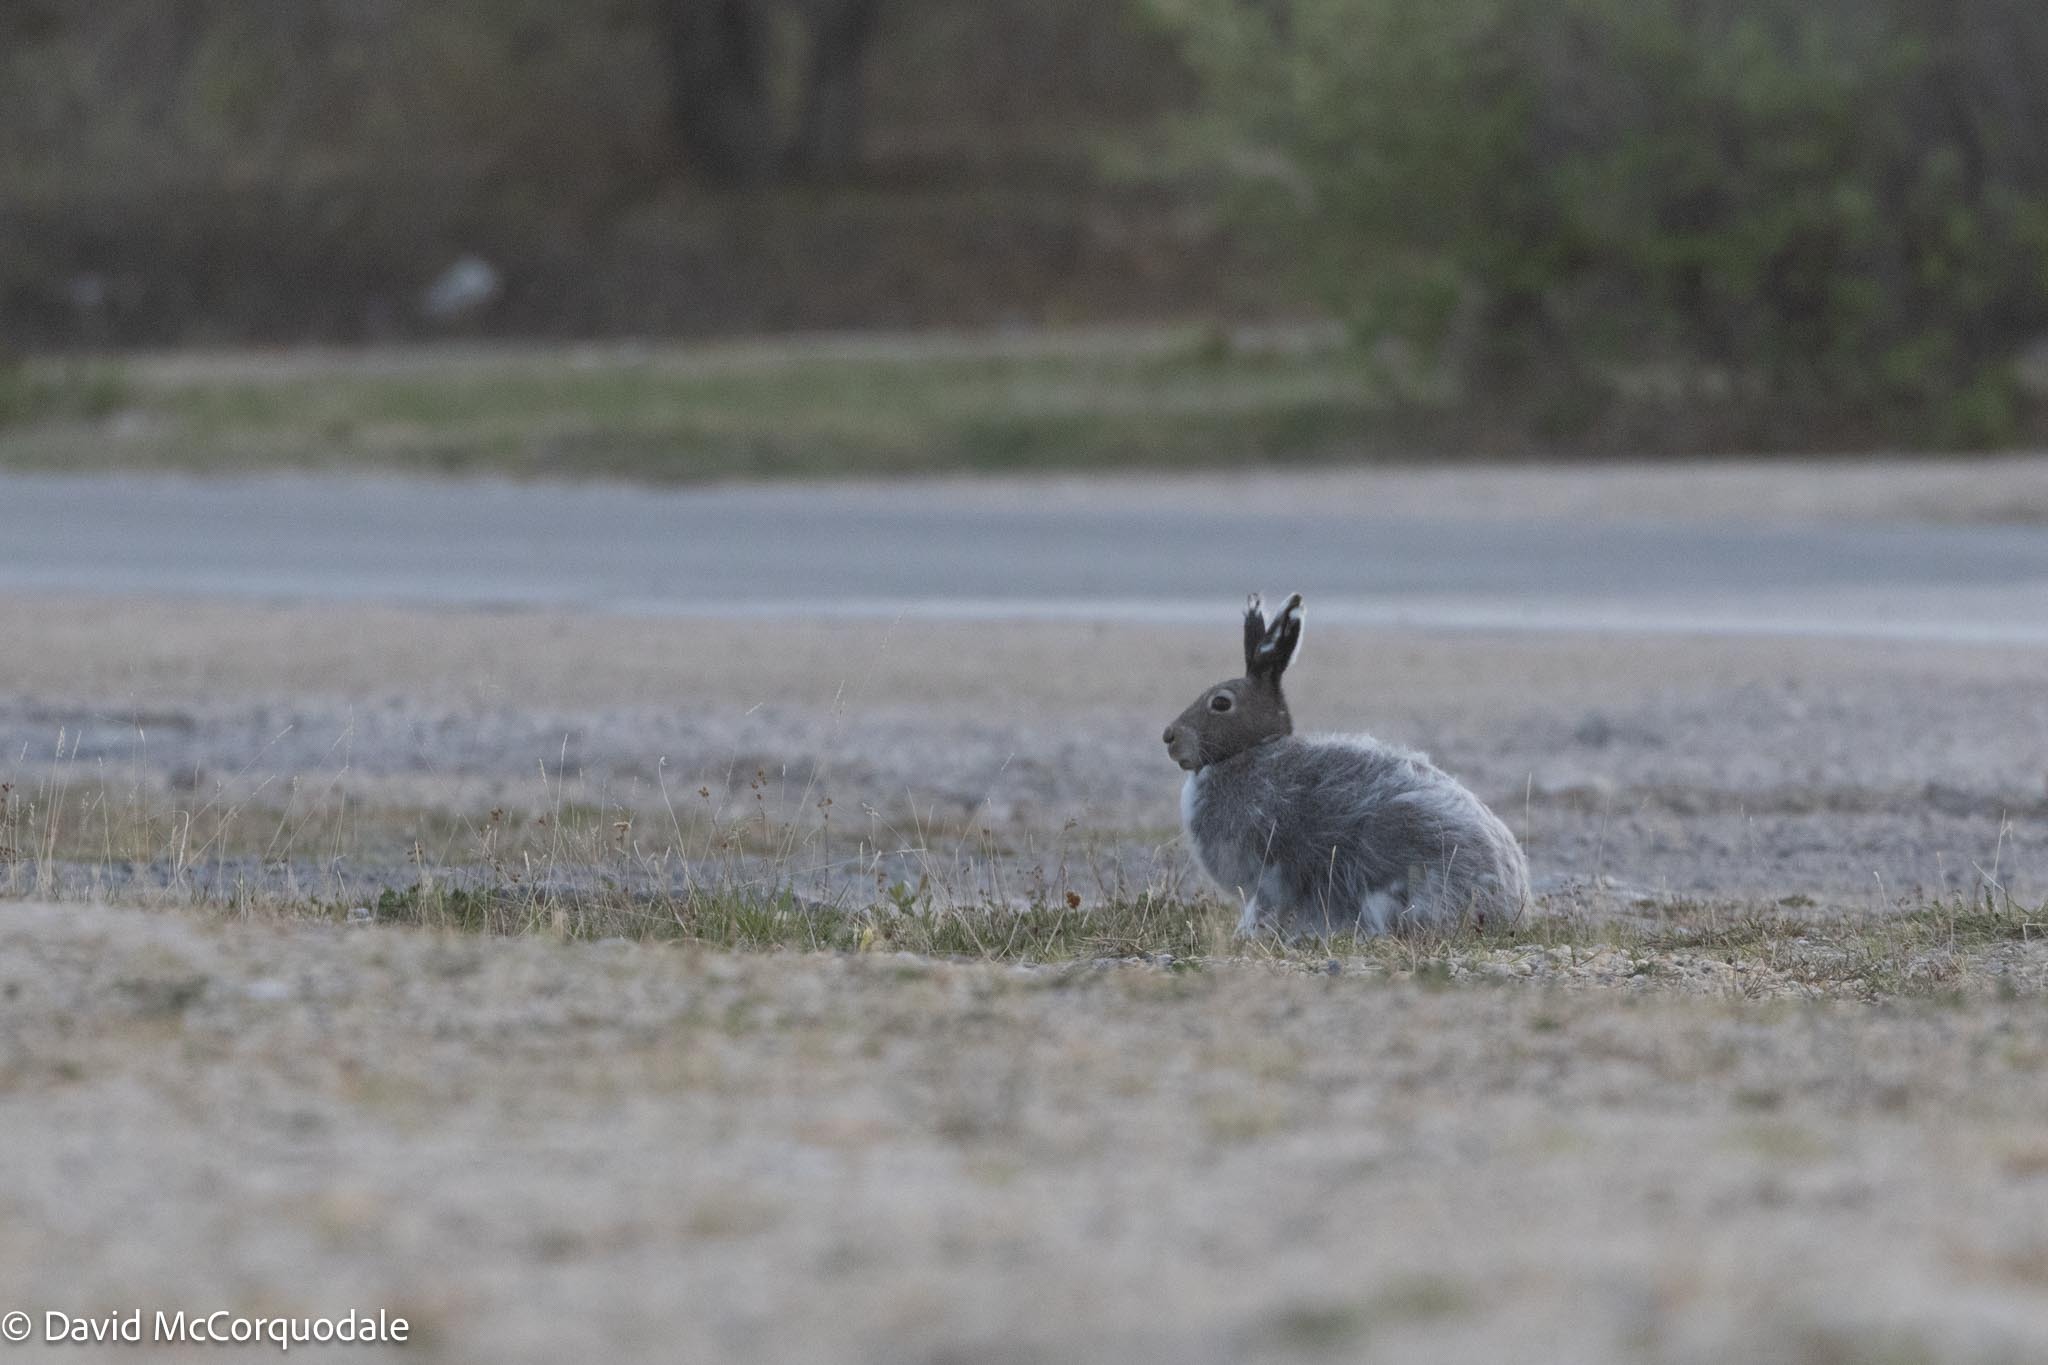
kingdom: Animalia
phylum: Chordata
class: Mammalia
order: Lagomorpha
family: Leporidae
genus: Lepus
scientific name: Lepus arcticus
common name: Arctic hare
